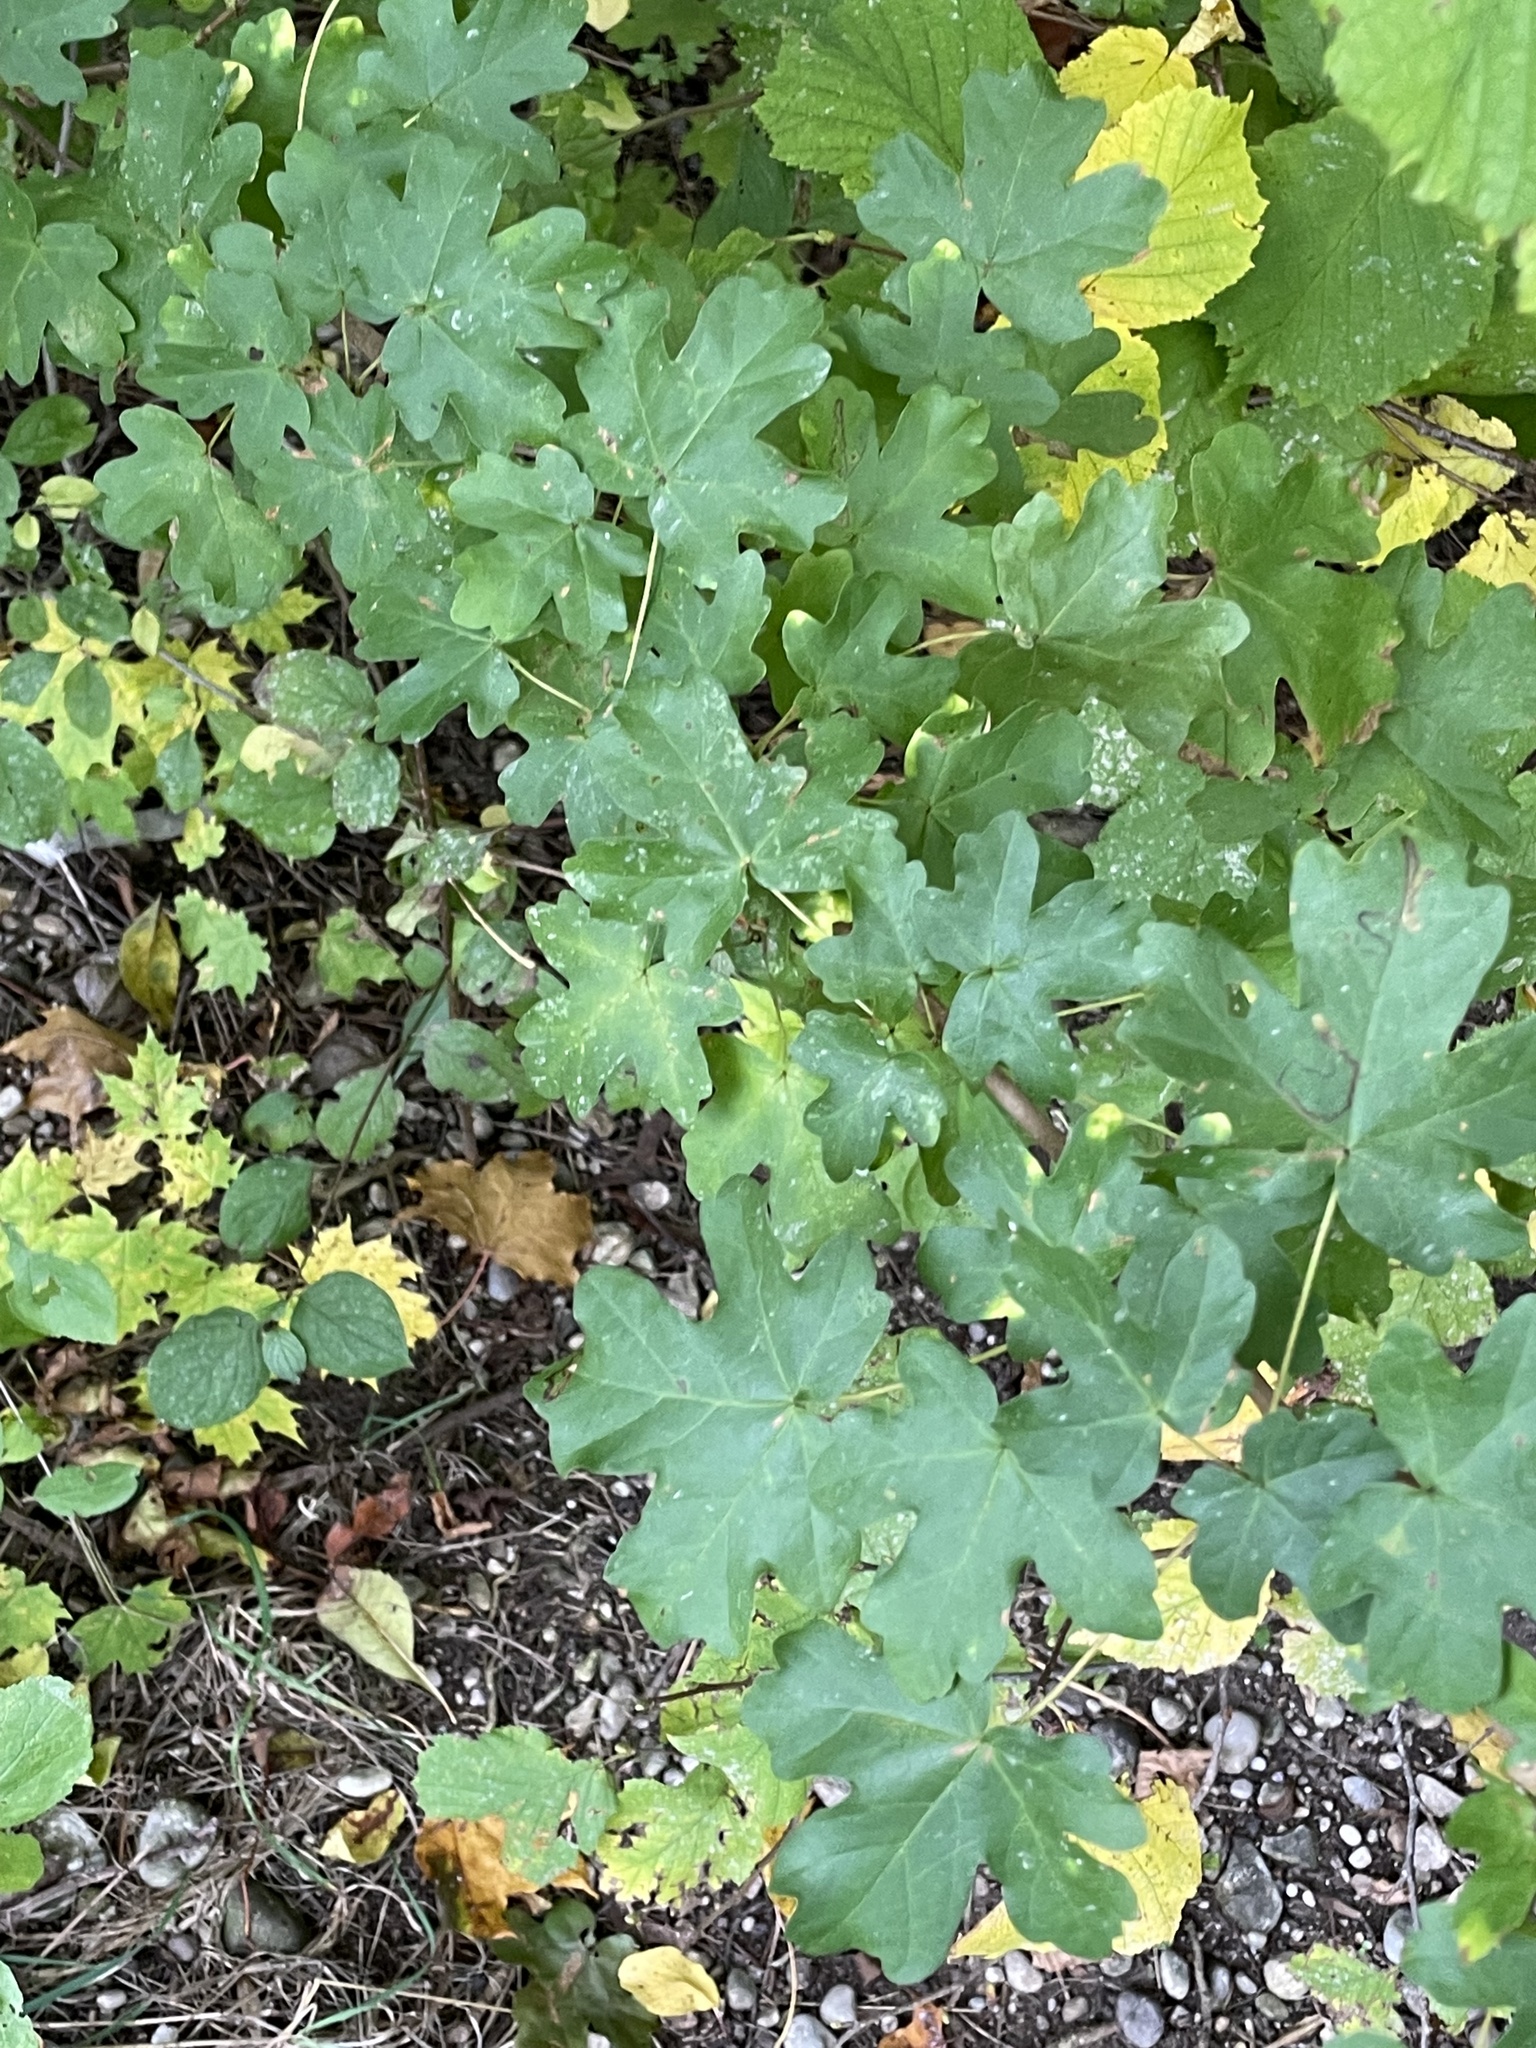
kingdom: Plantae
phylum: Tracheophyta
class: Magnoliopsida
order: Sapindales
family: Sapindaceae
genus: Acer
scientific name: Acer campestre
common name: Field maple
